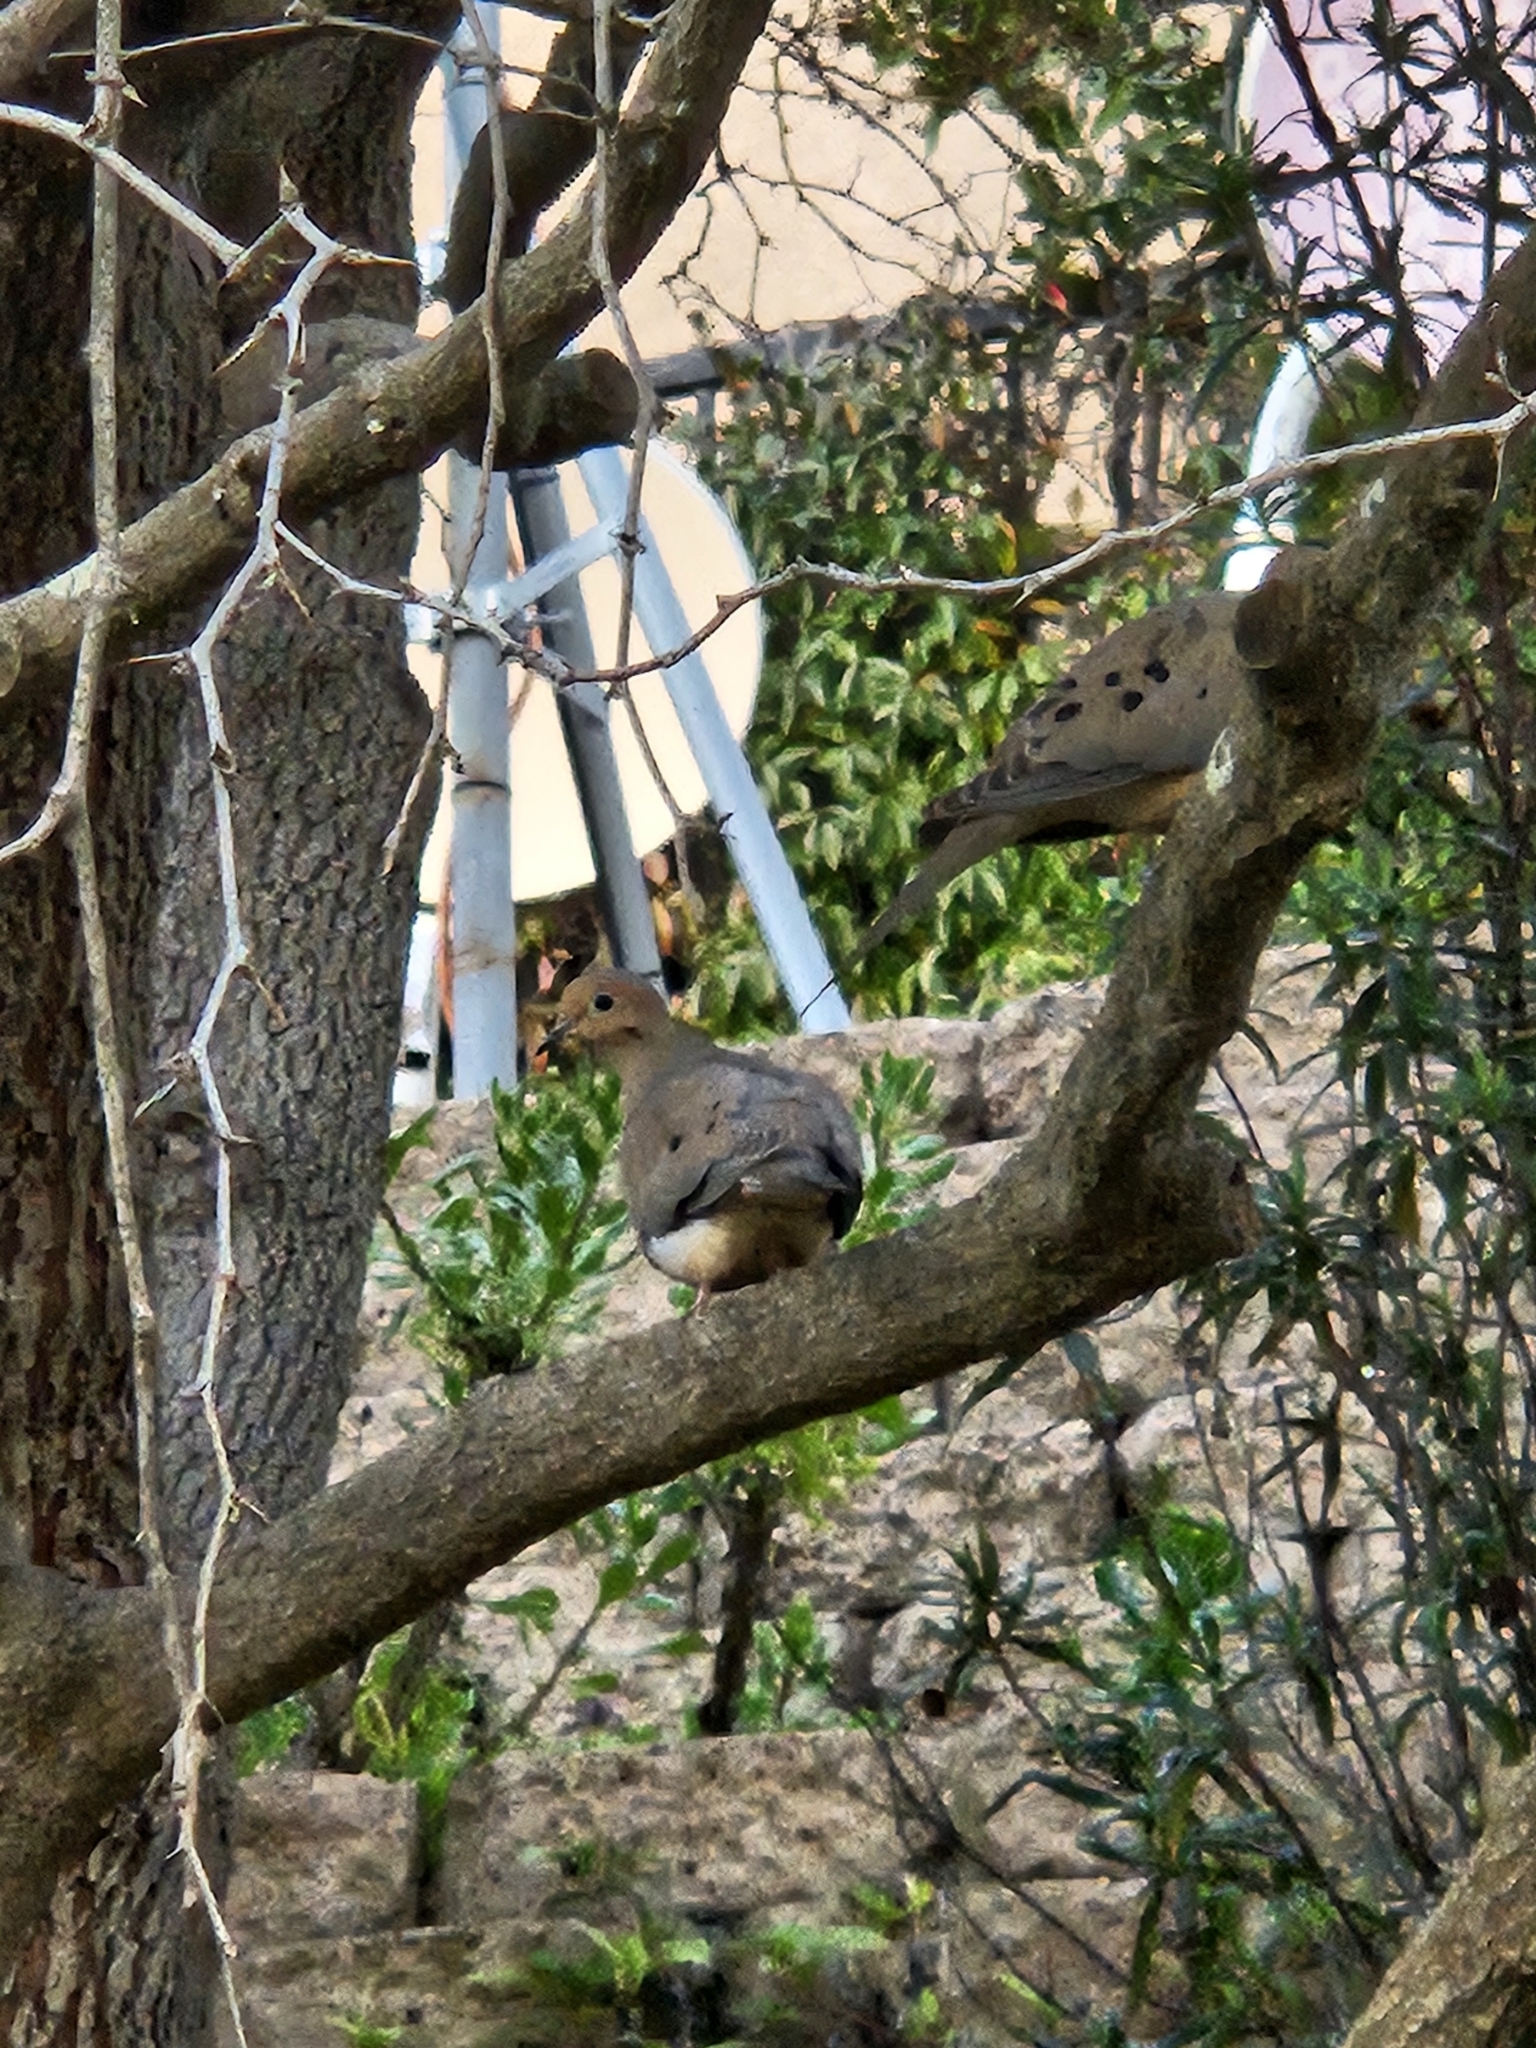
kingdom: Animalia
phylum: Chordata
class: Aves
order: Columbiformes
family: Columbidae
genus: Zenaida
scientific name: Zenaida macroura
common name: Mourning dove
